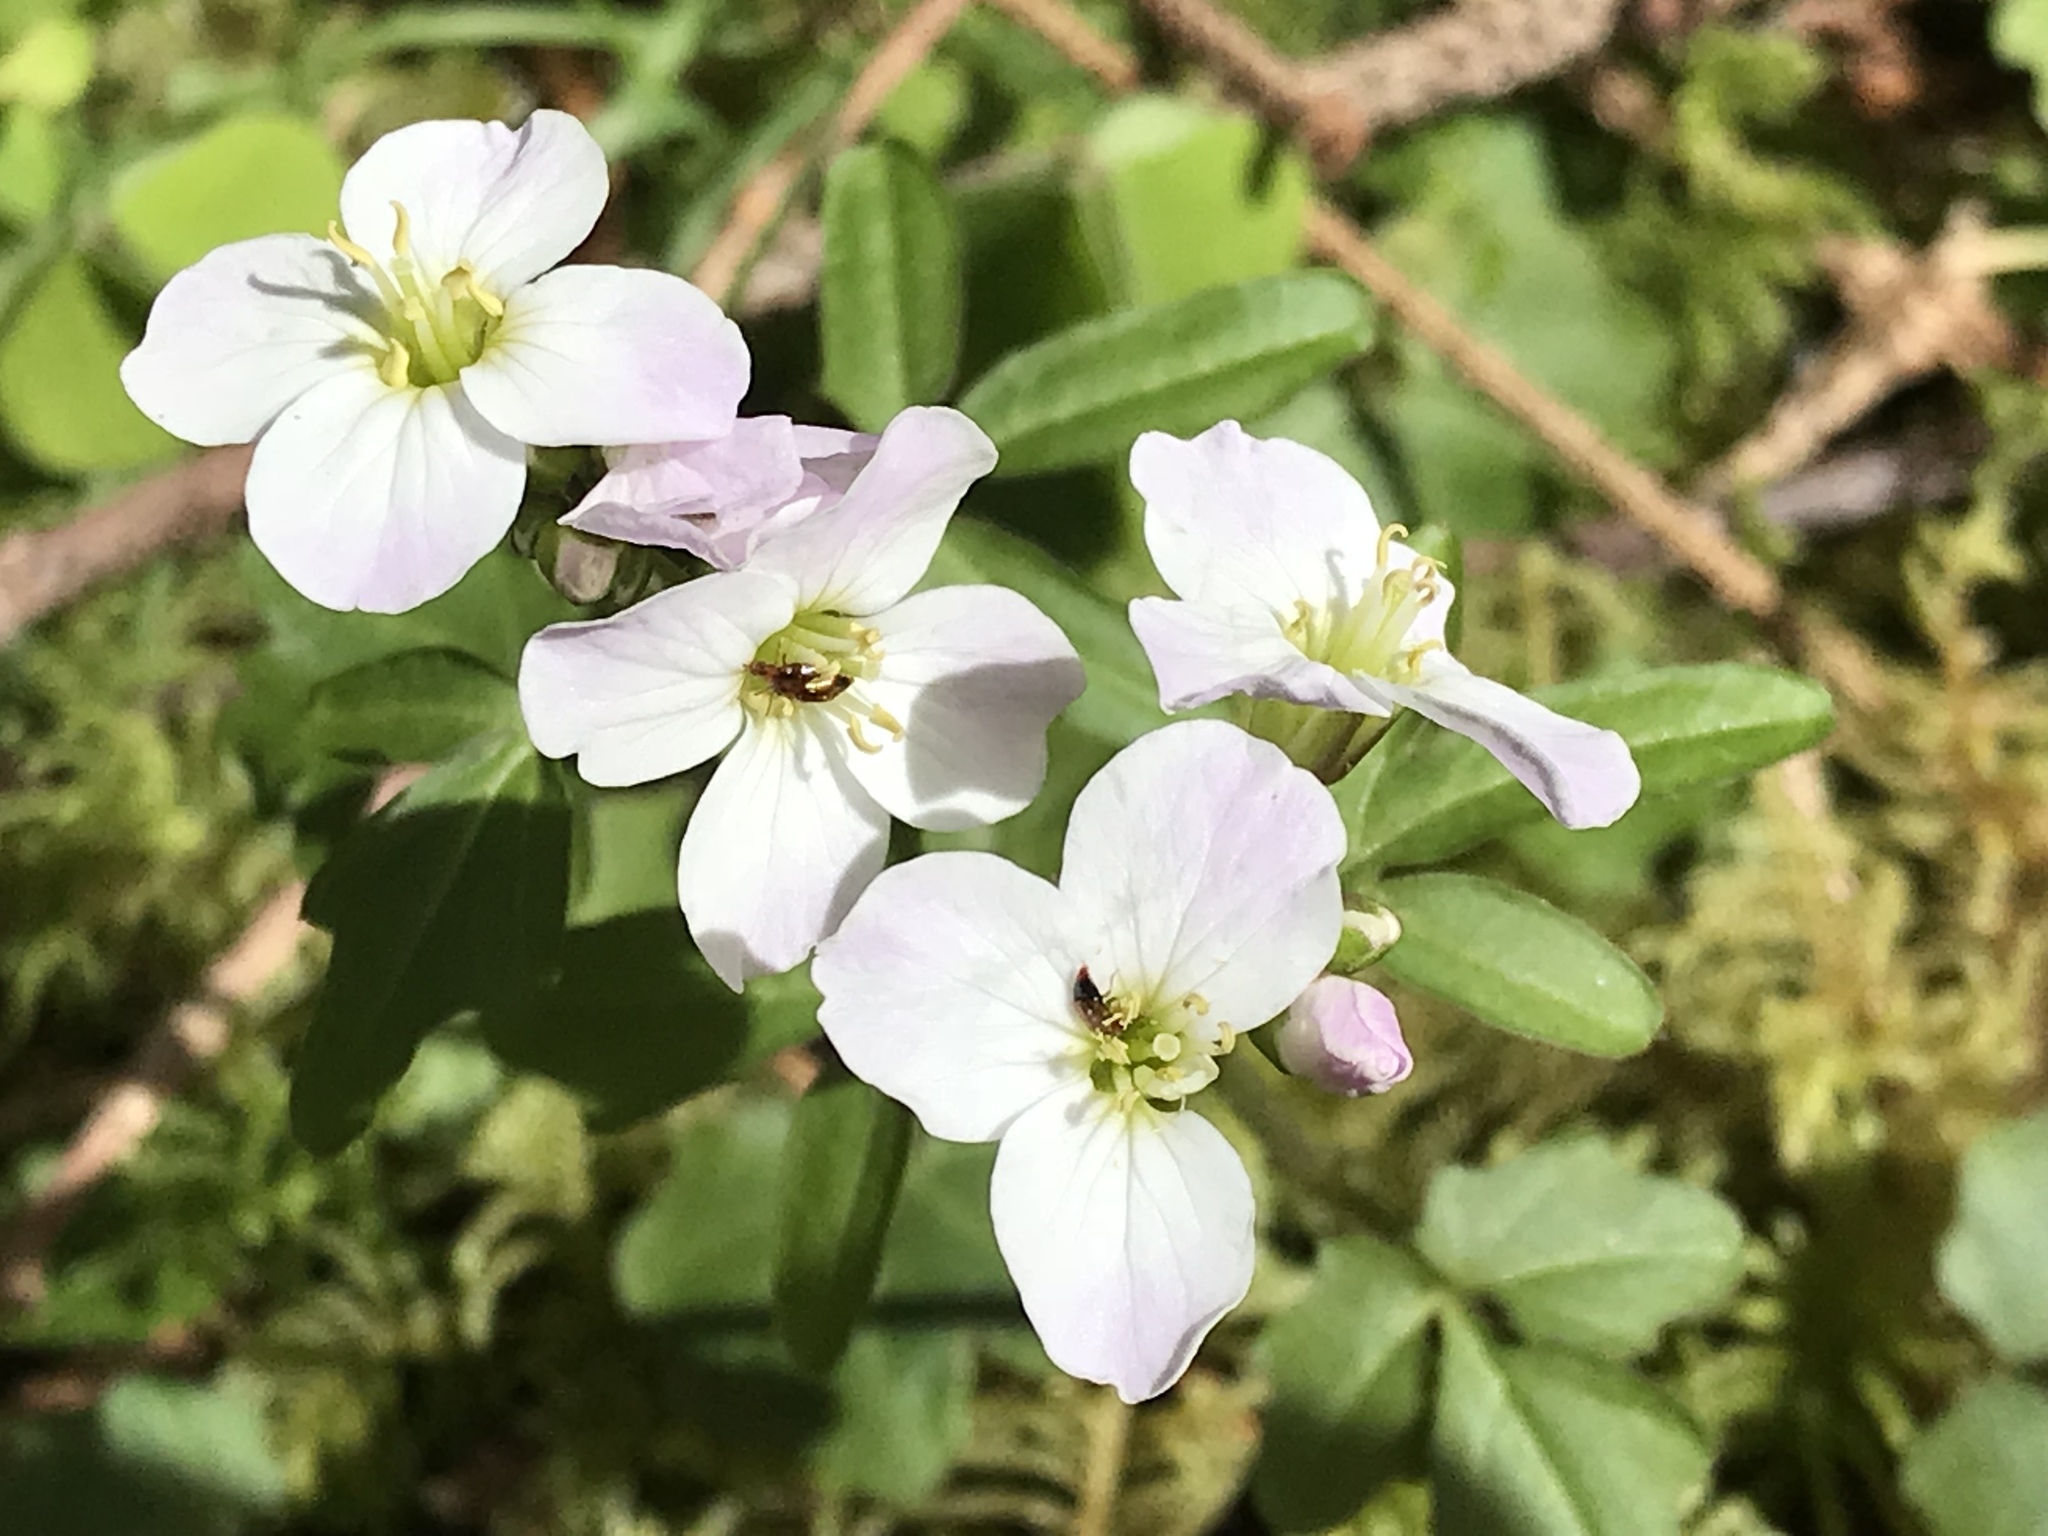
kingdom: Plantae
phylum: Tracheophyta
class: Magnoliopsida
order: Brassicales
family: Brassicaceae
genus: Cardamine
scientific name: Cardamine californica
